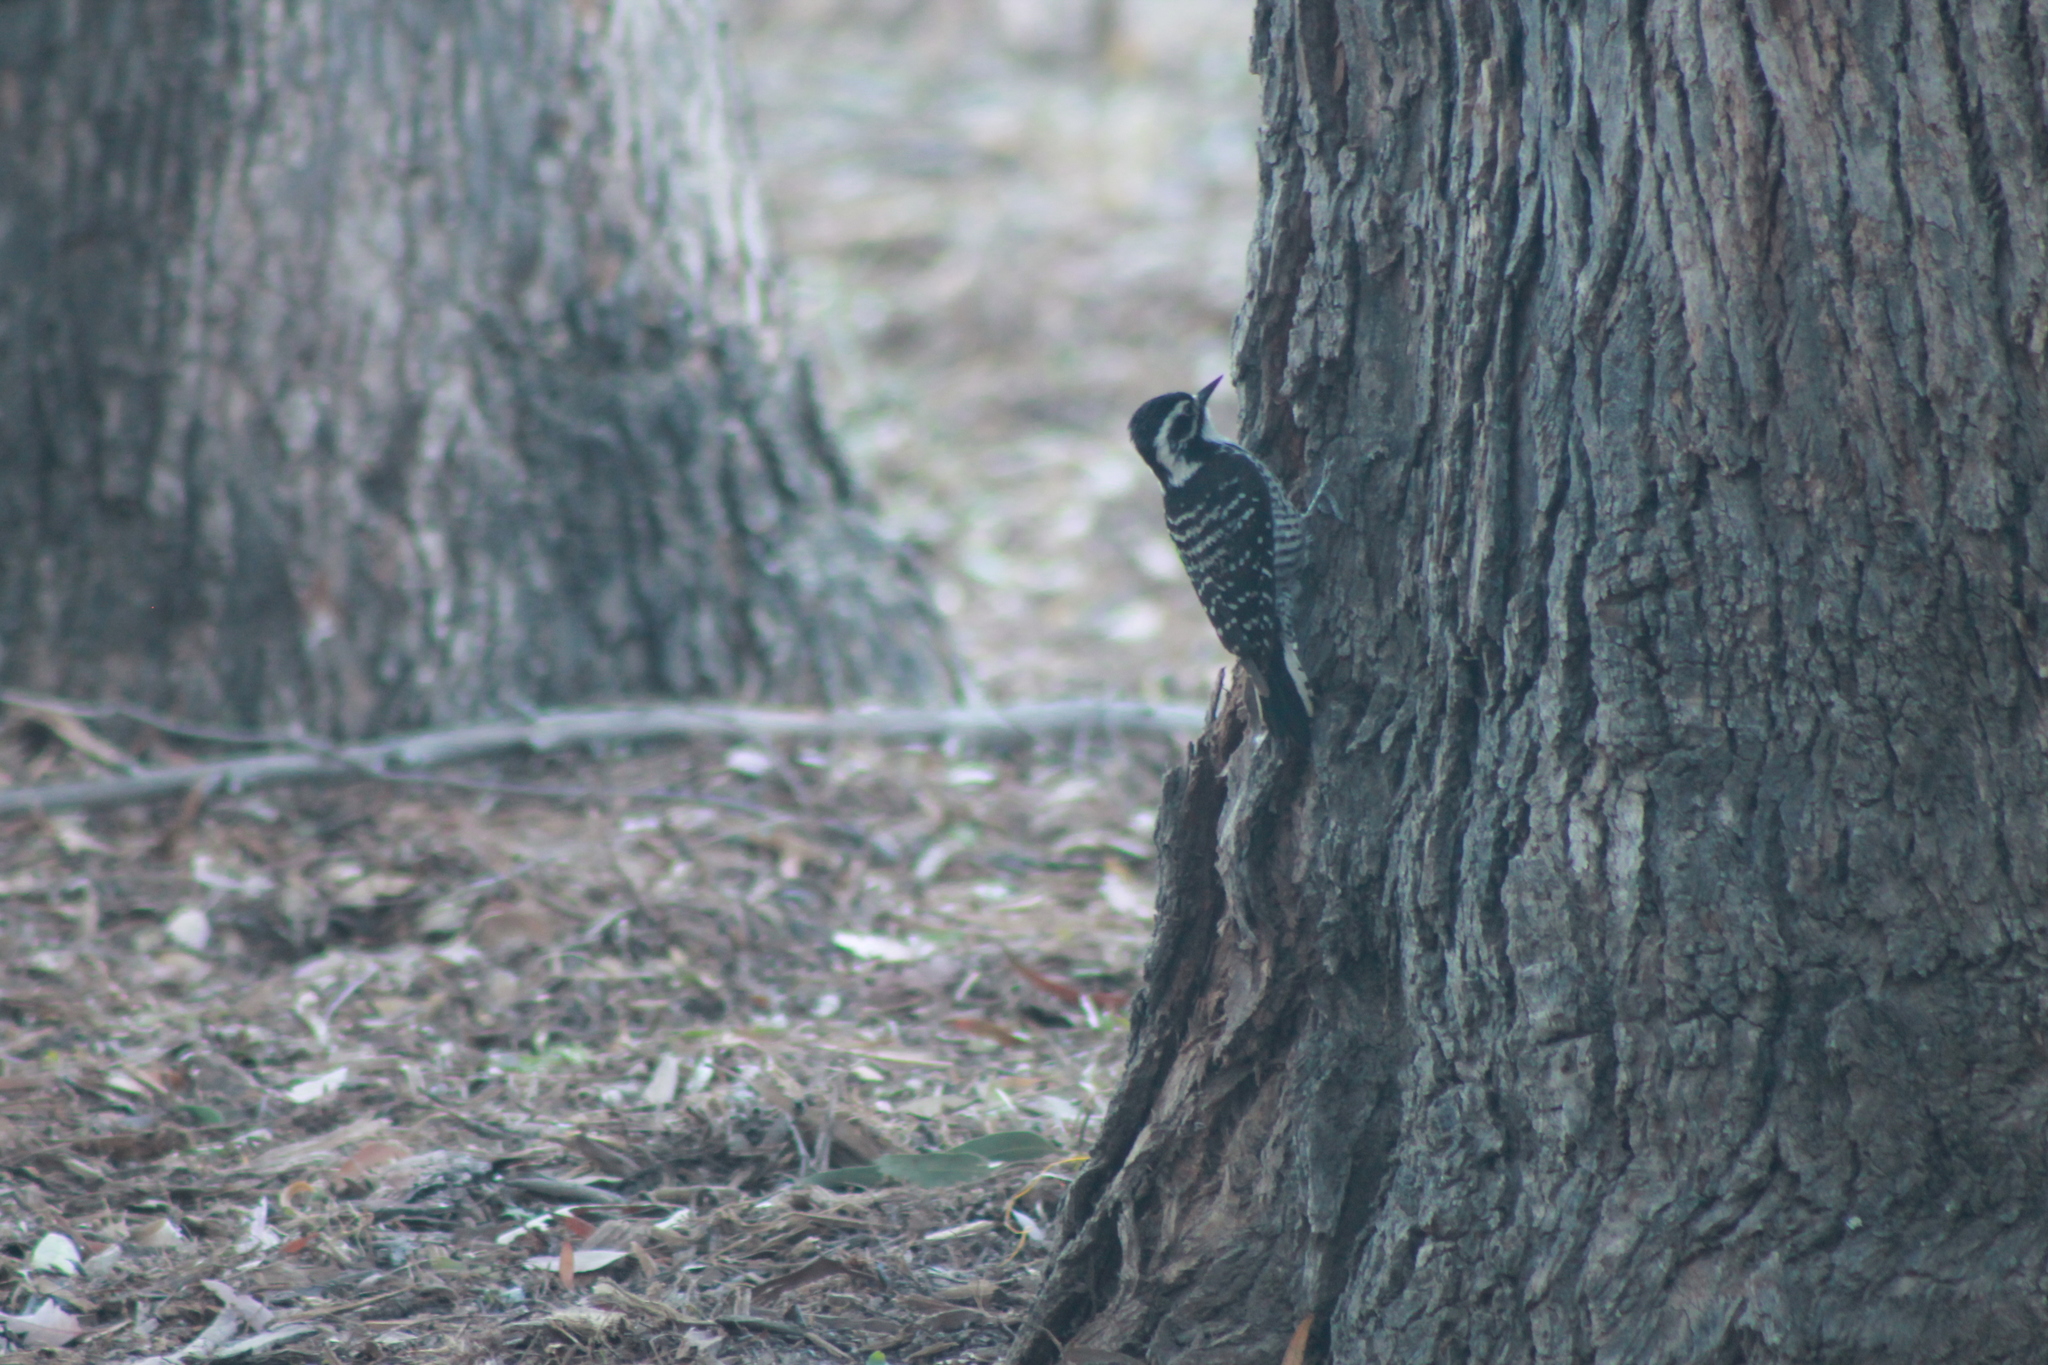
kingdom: Animalia
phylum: Chordata
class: Aves
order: Piciformes
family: Picidae
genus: Dryobates
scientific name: Dryobates nuttallii
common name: Nuttall's woodpecker
